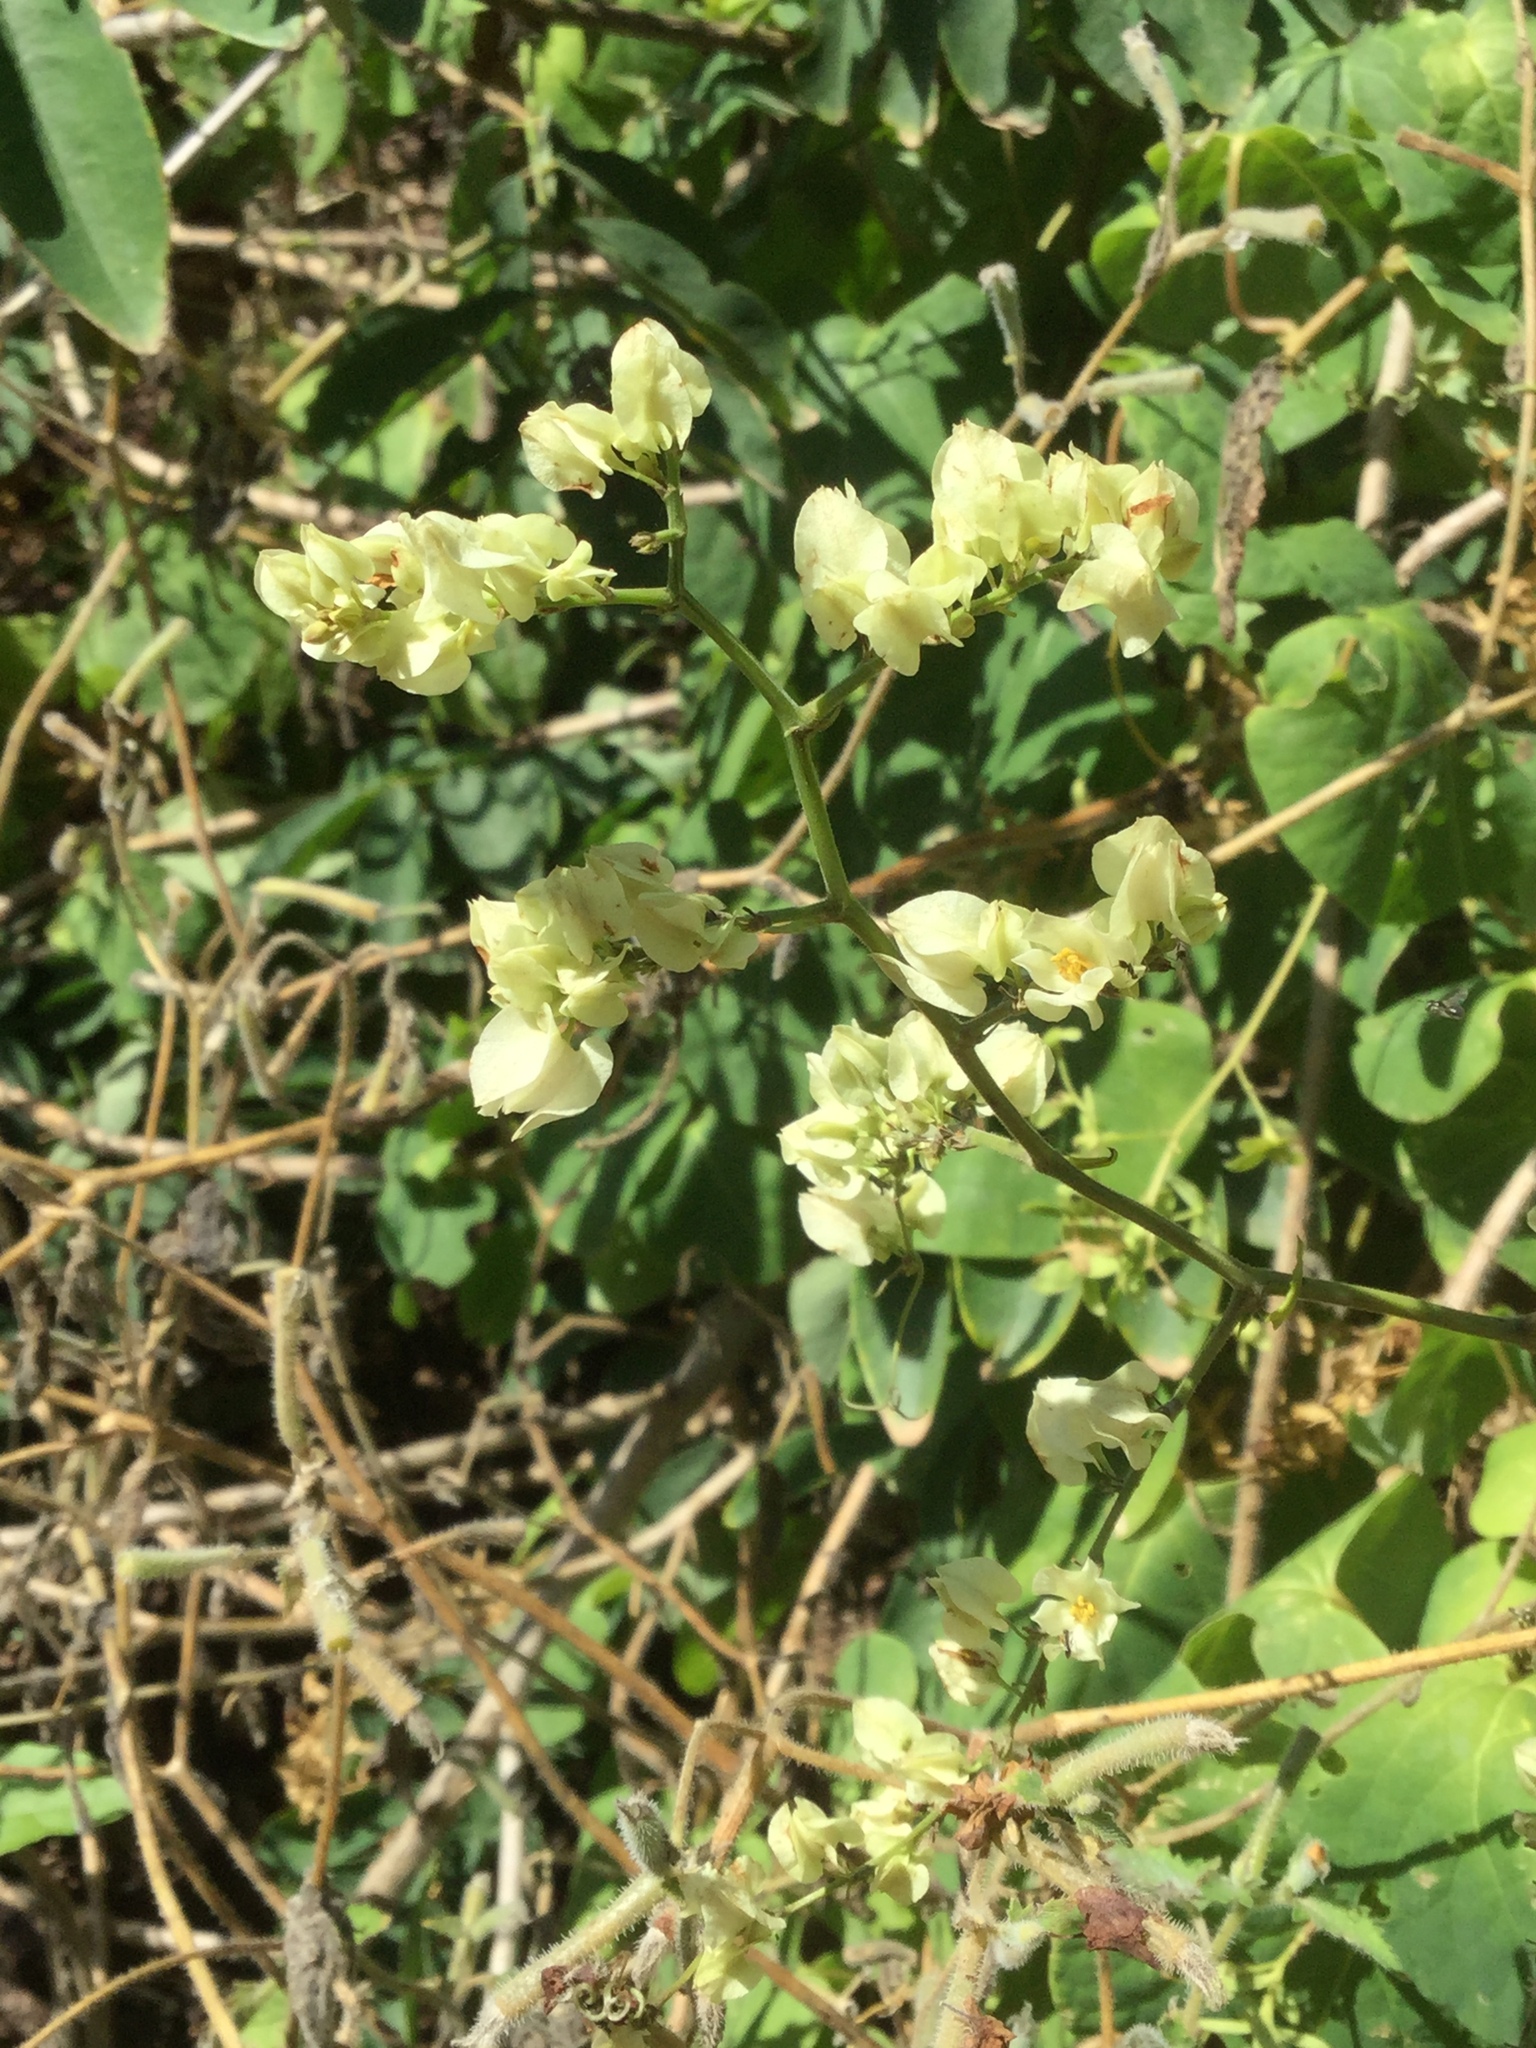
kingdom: Plantae
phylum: Tracheophyta
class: Magnoliopsida
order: Caryophyllales
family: Polygonaceae
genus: Antigonon
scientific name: Antigonon flavescens
